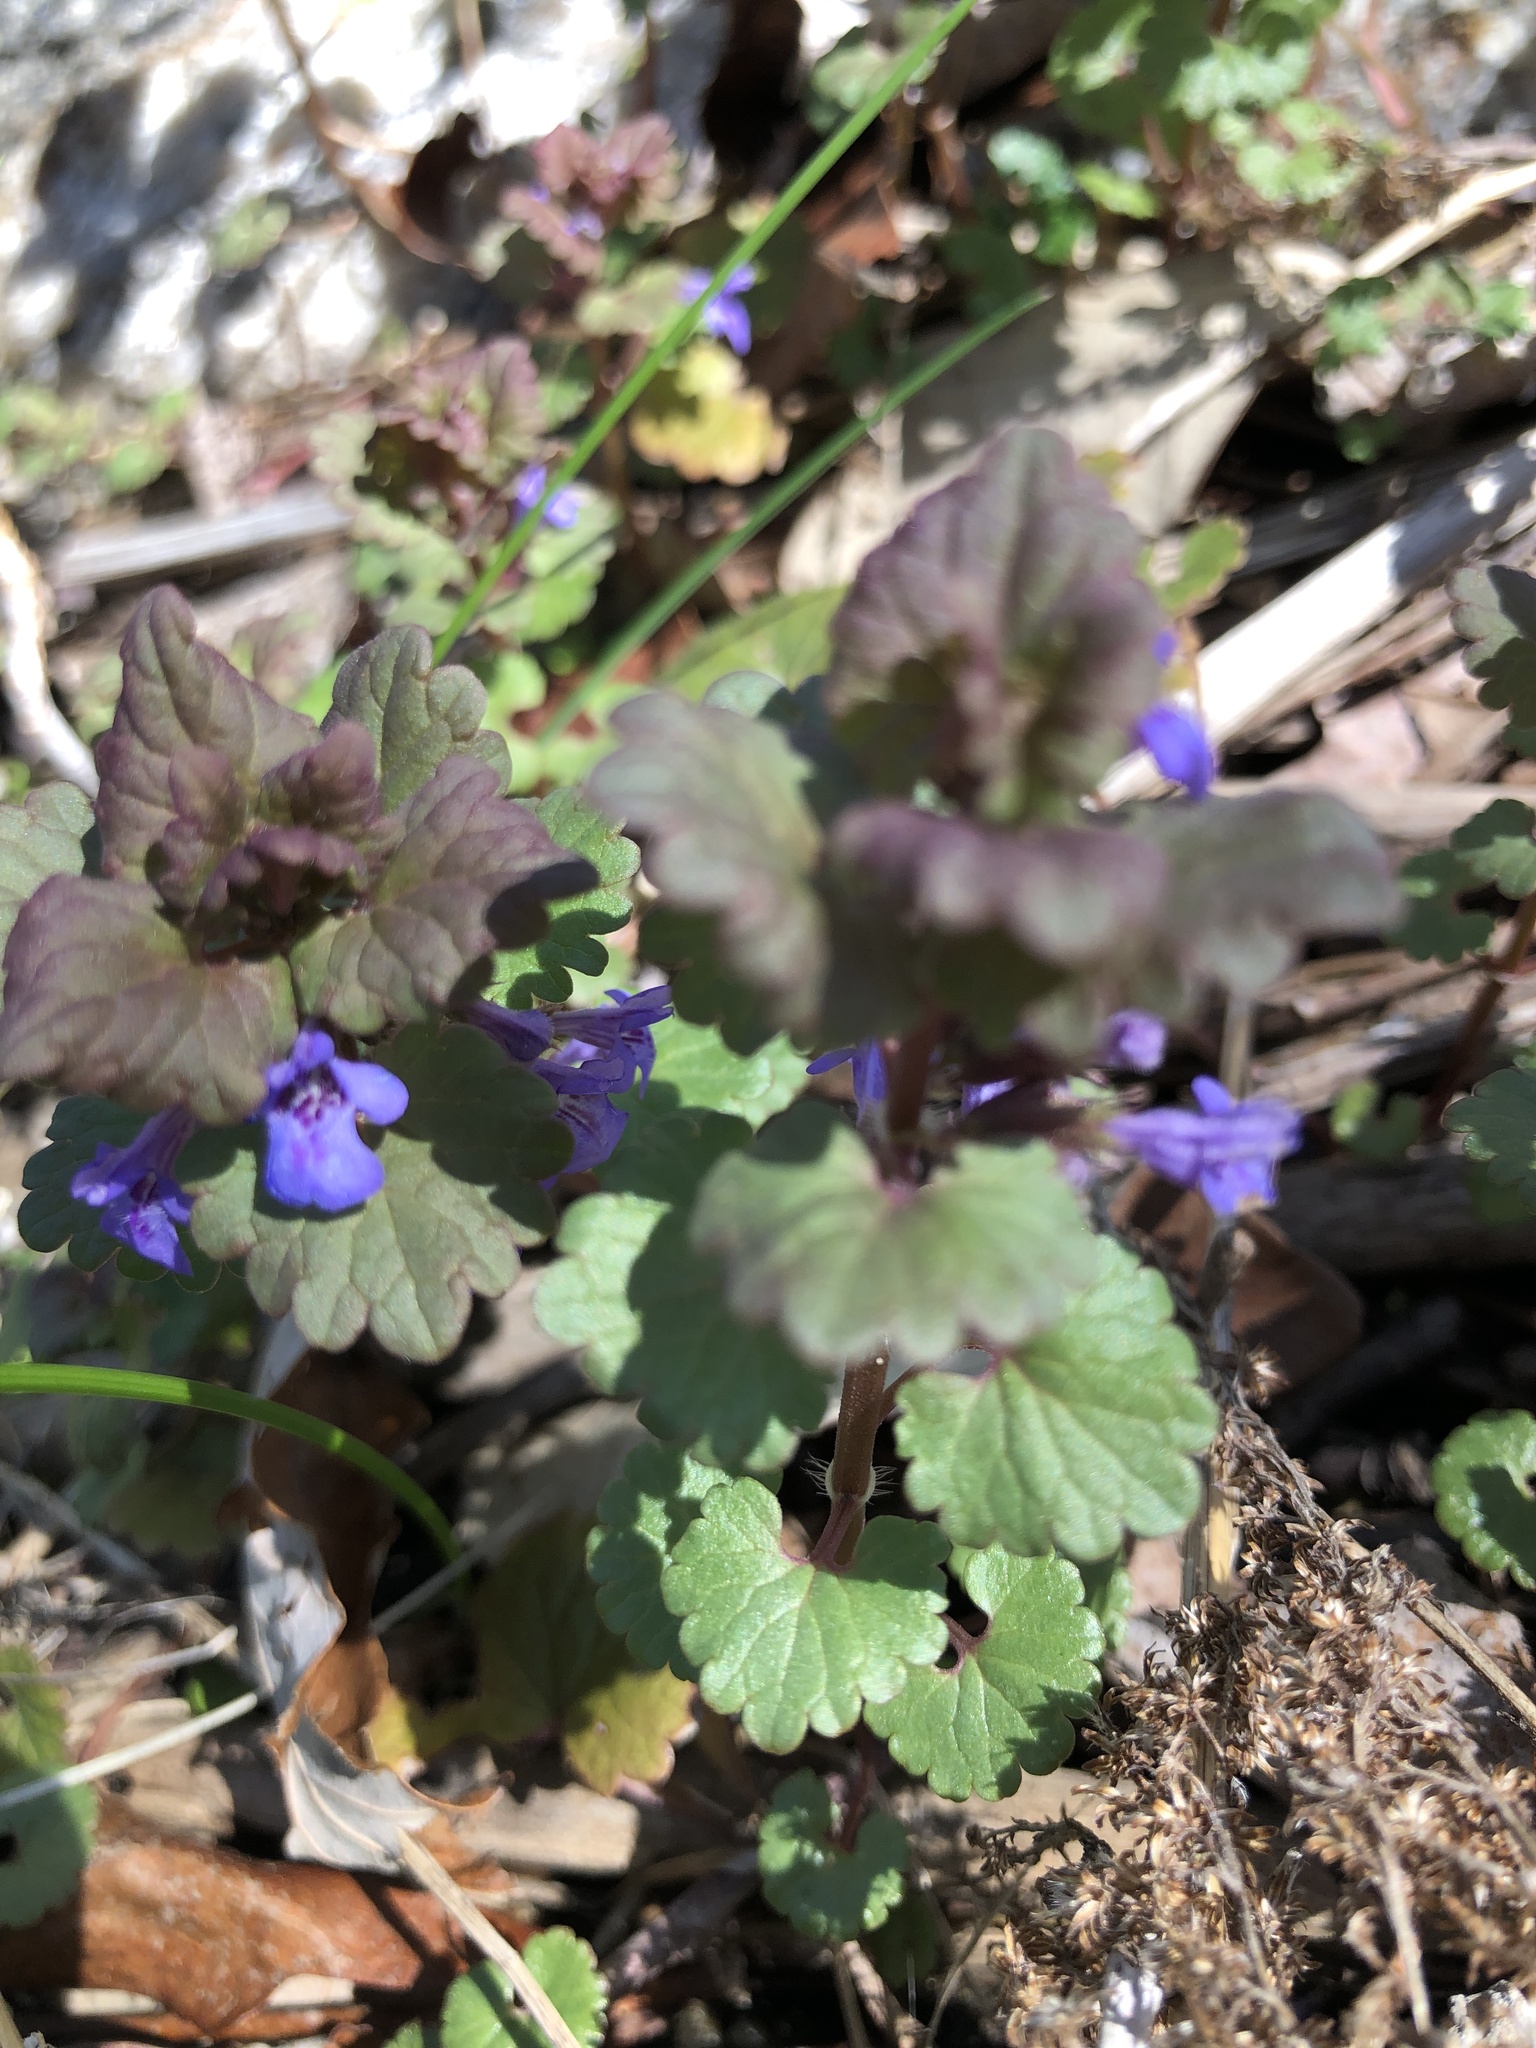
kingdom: Plantae
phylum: Tracheophyta
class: Magnoliopsida
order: Lamiales
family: Lamiaceae
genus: Glechoma
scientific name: Glechoma hederacea
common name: Ground ivy
